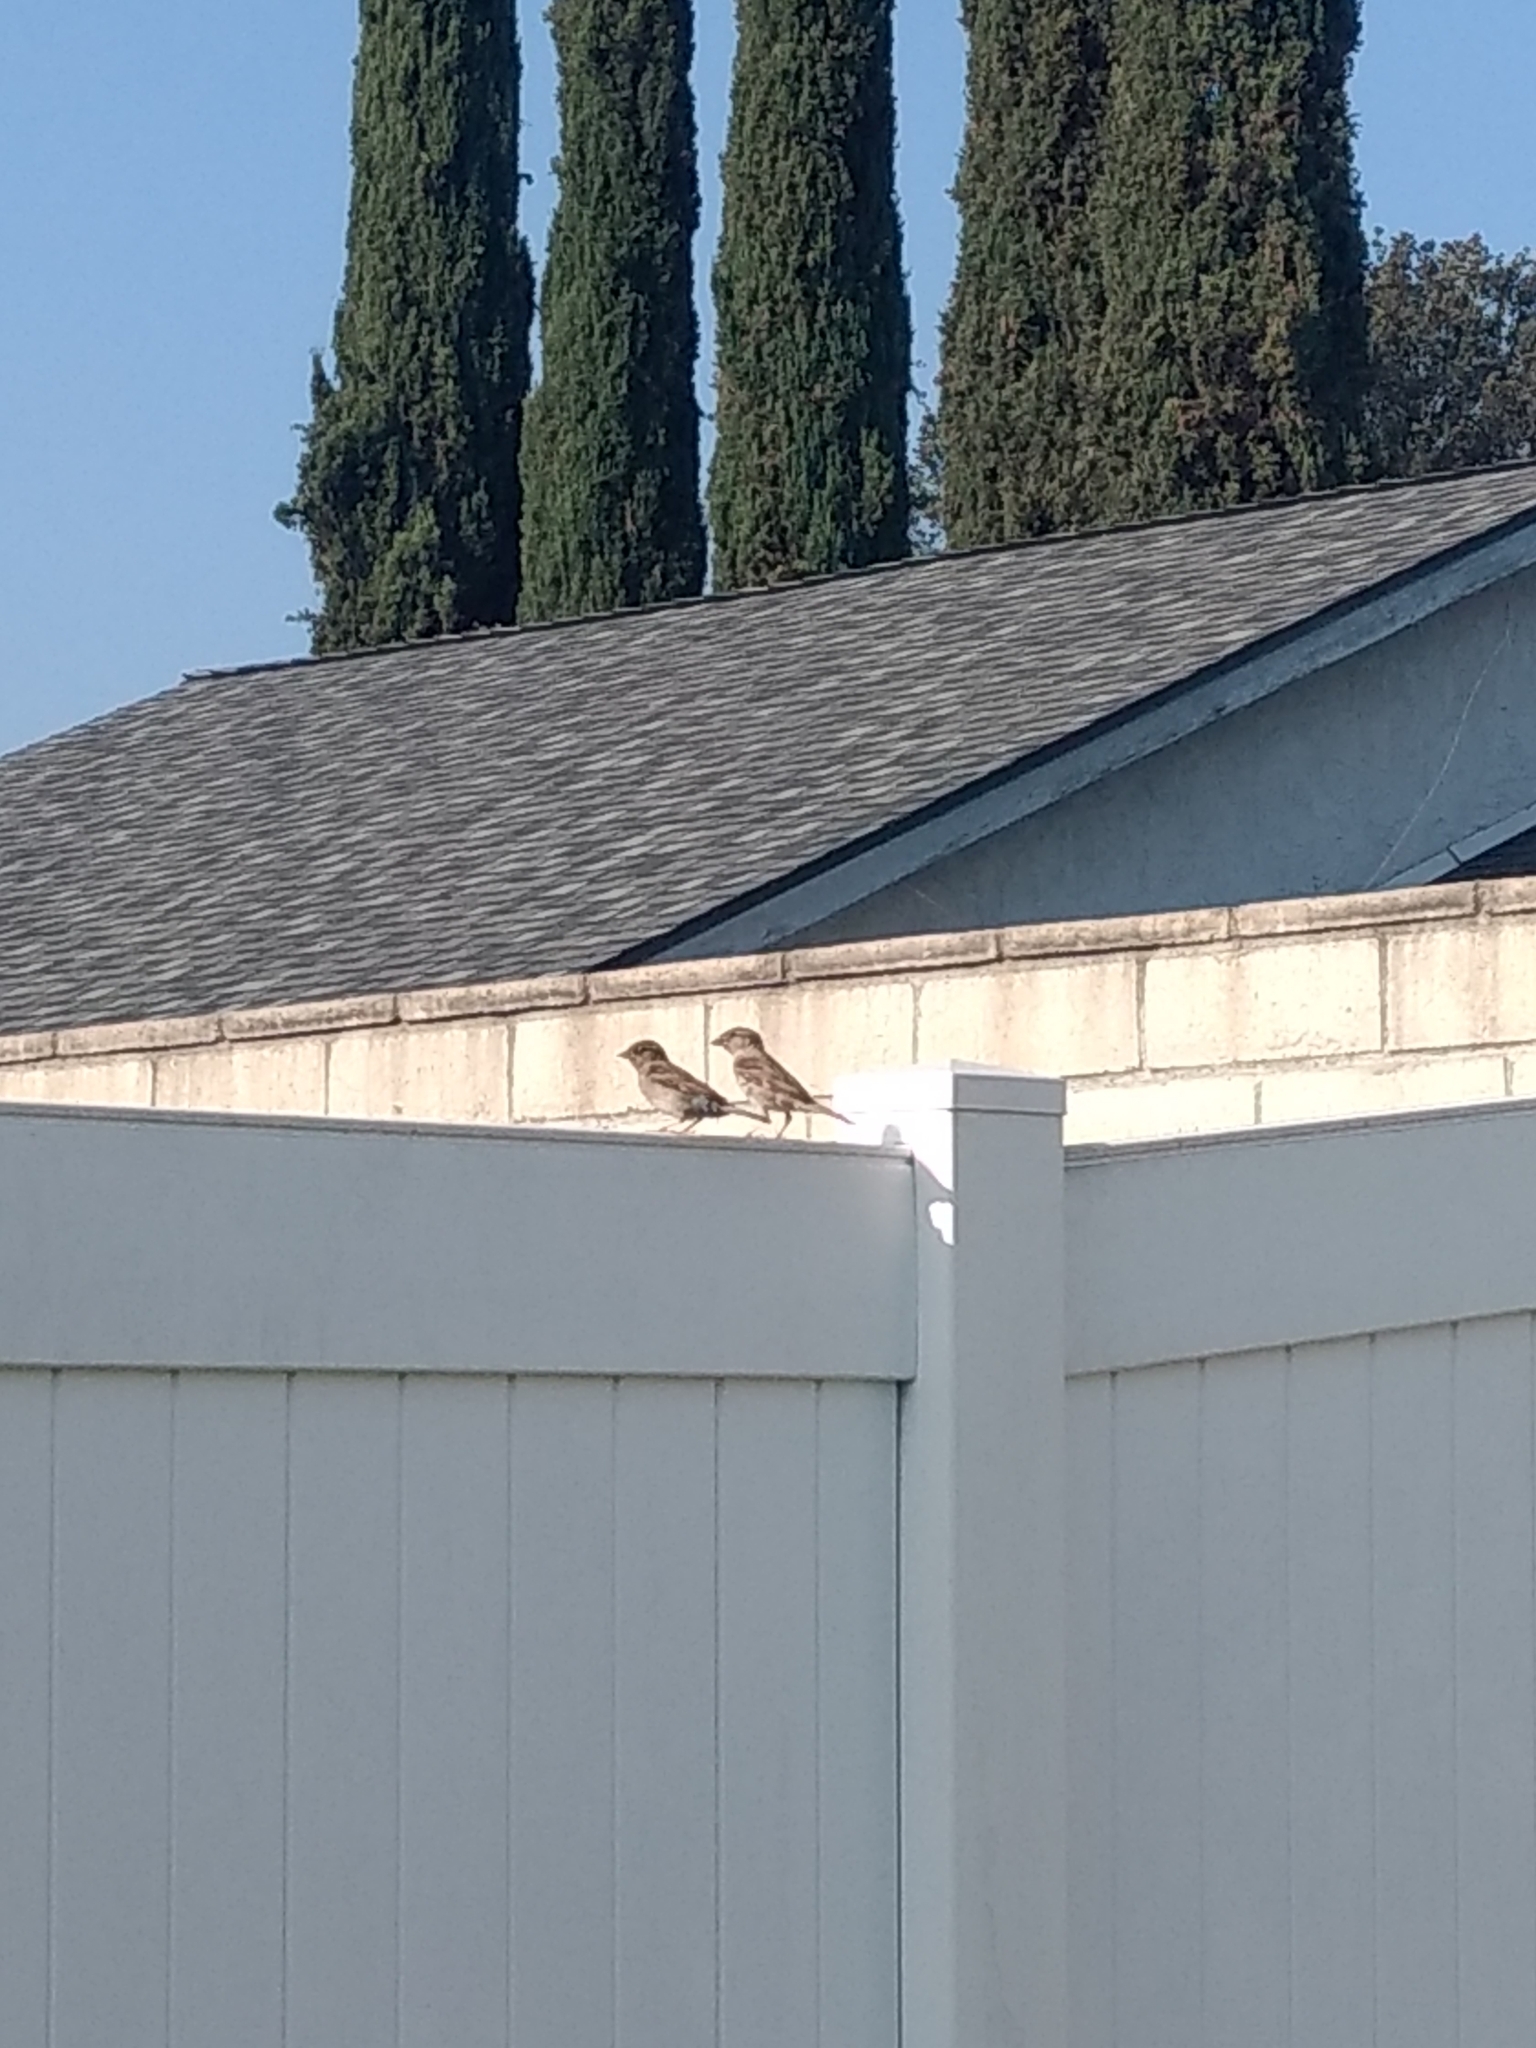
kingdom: Animalia
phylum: Chordata
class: Aves
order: Passeriformes
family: Passeridae
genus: Passer
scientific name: Passer domesticus
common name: House sparrow
